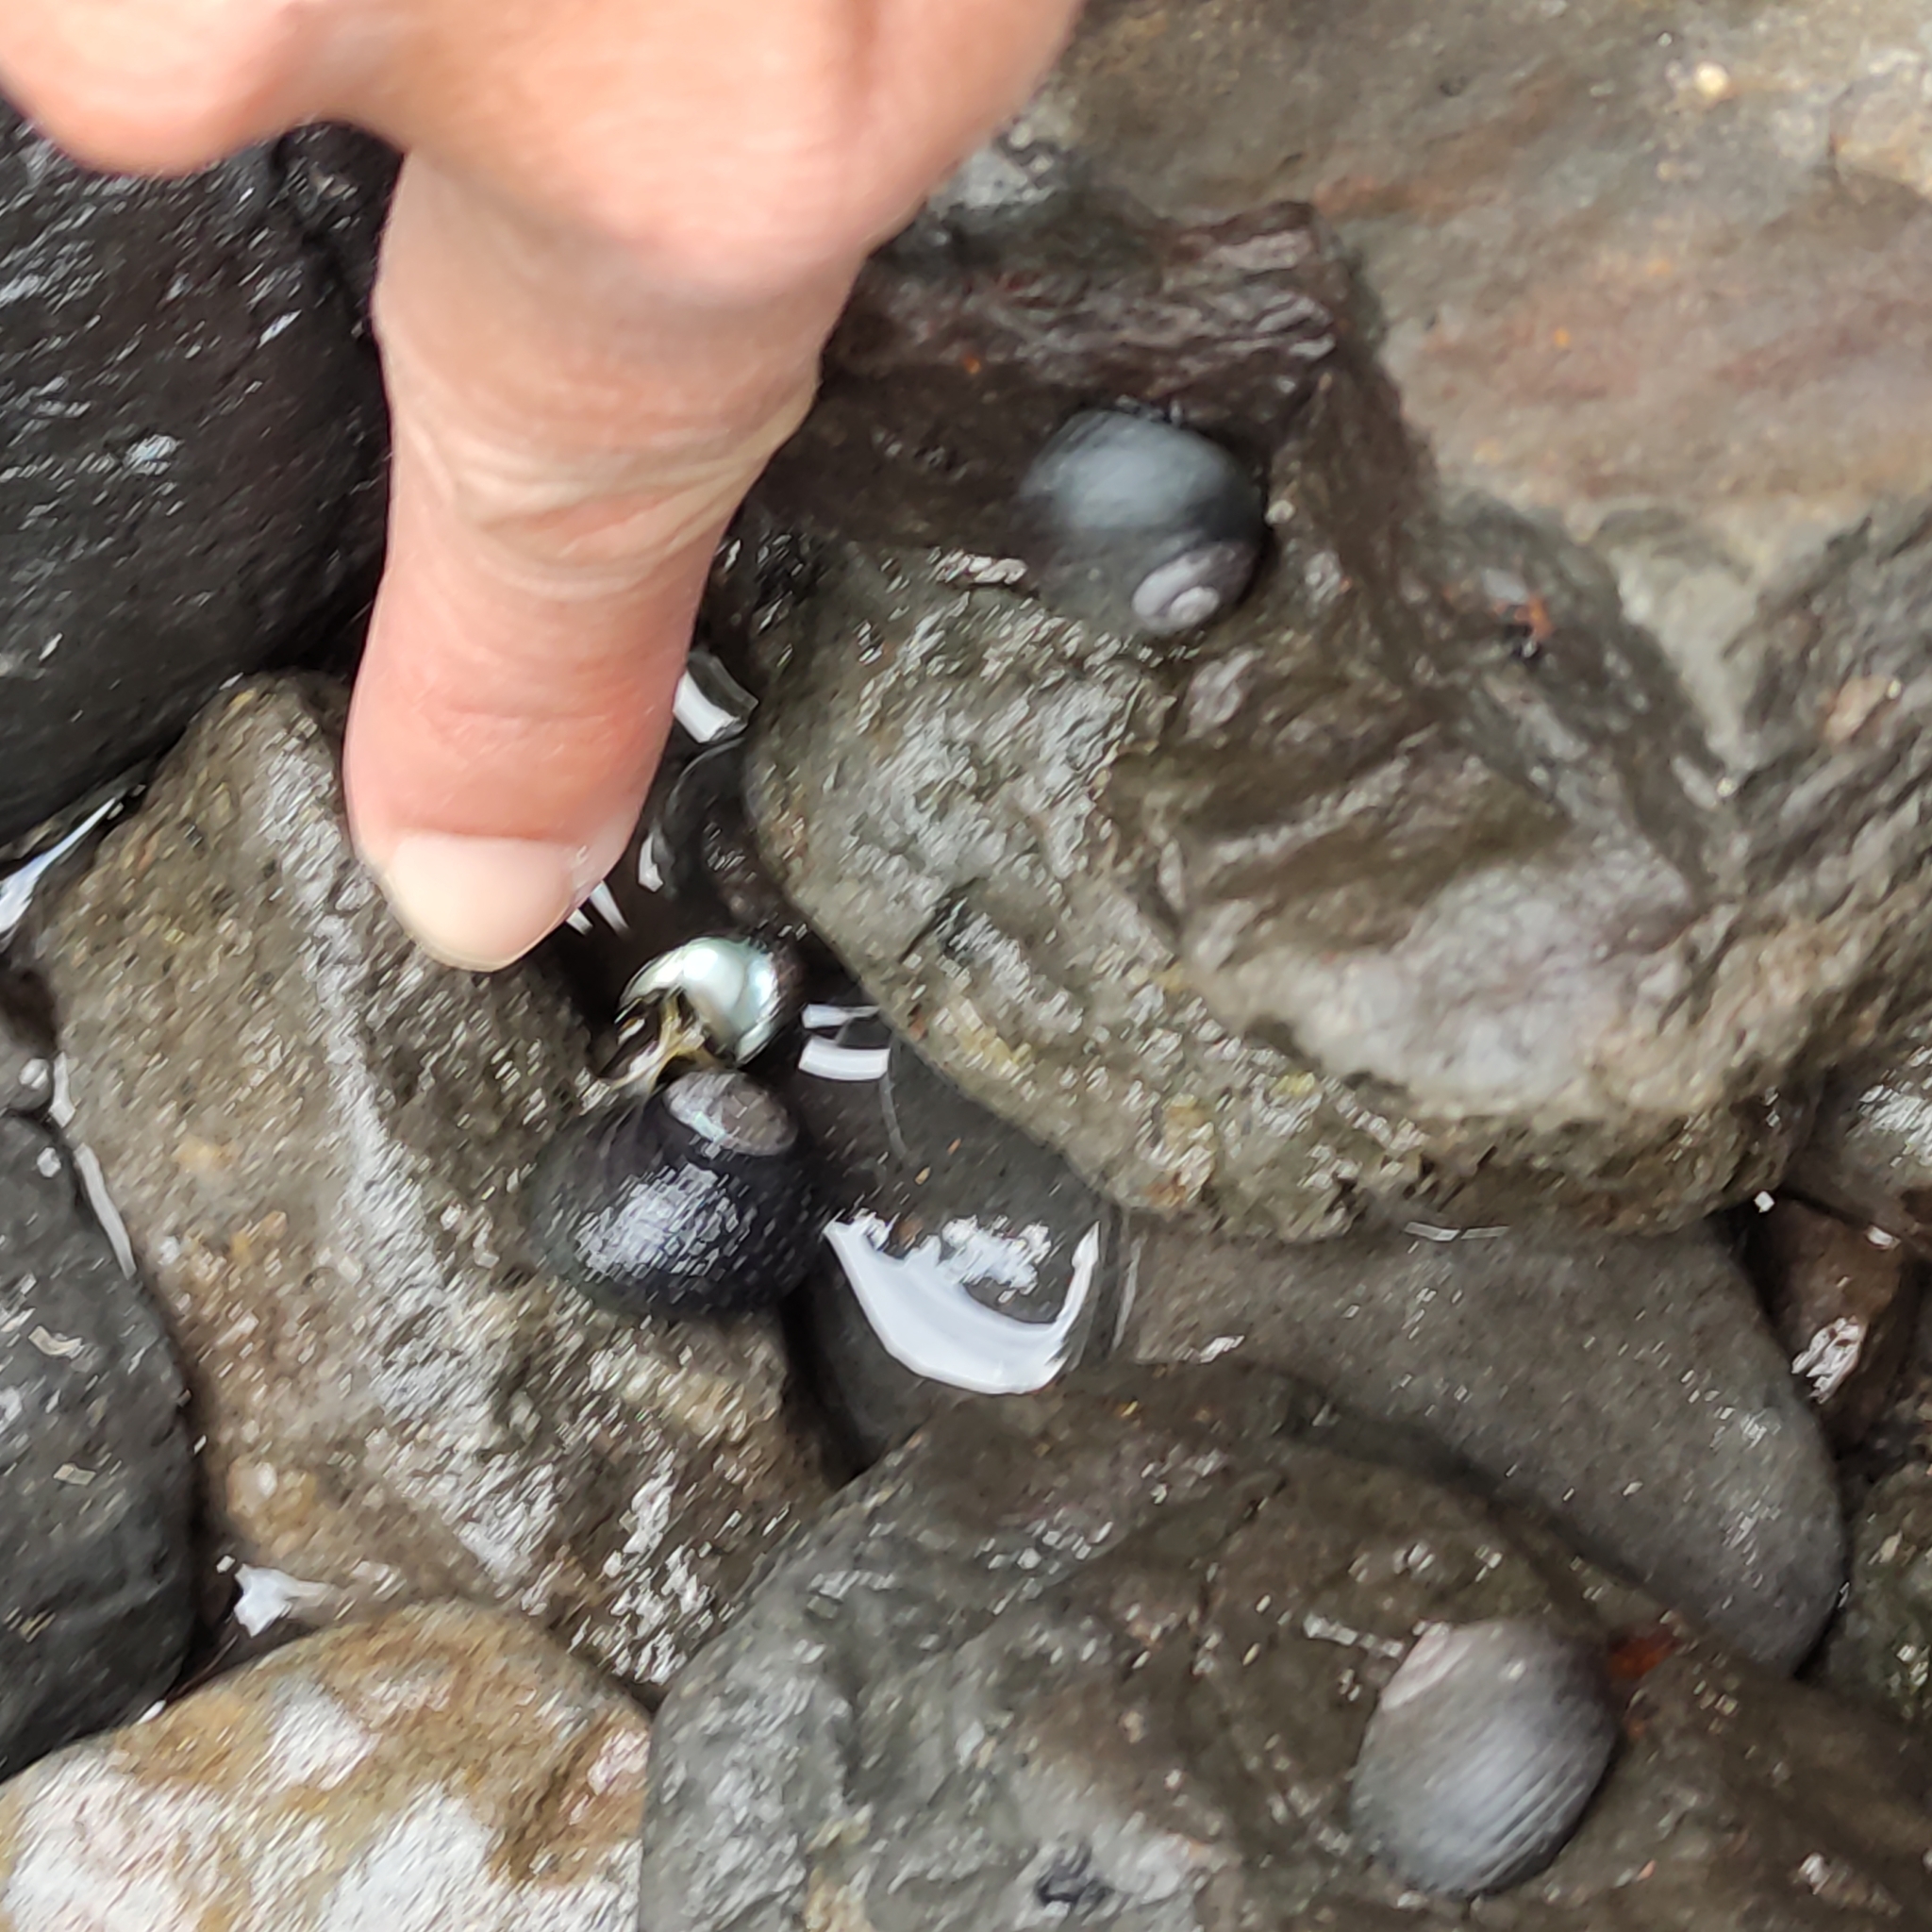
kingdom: Animalia
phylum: Mollusca
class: Gastropoda
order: Trochida
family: Trochidae
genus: Diloma
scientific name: Diloma aridum
